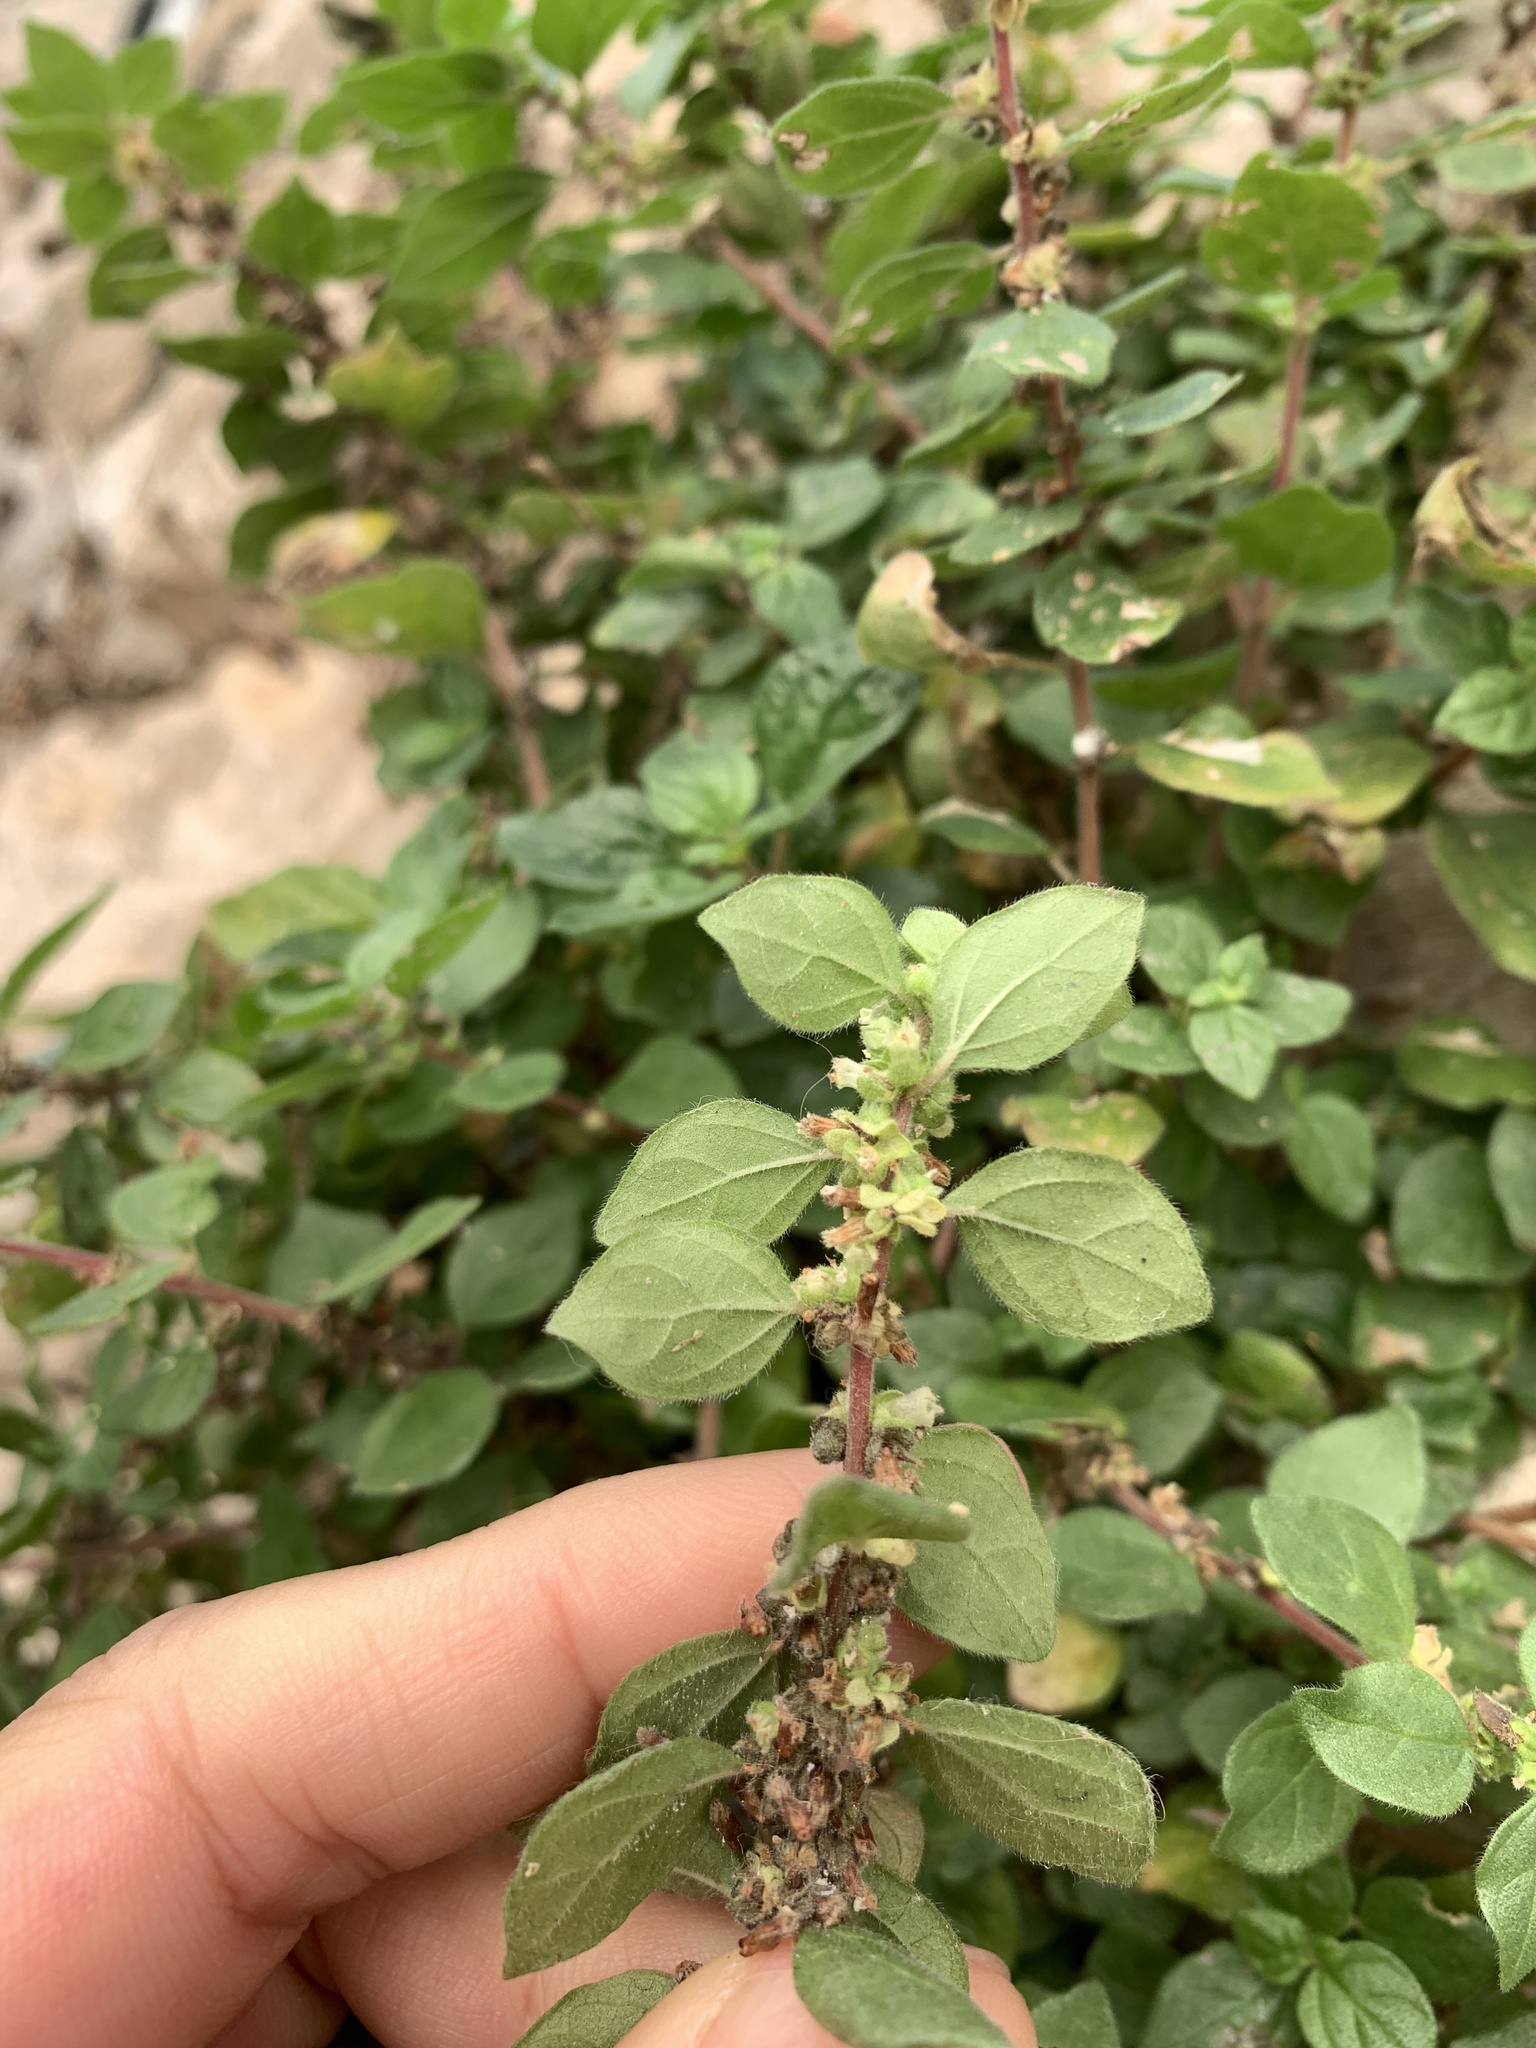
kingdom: Plantae
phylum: Tracheophyta
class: Magnoliopsida
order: Rosales
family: Urticaceae
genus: Parietaria
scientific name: Parietaria judaica
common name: Pellitory-of-the-wall
